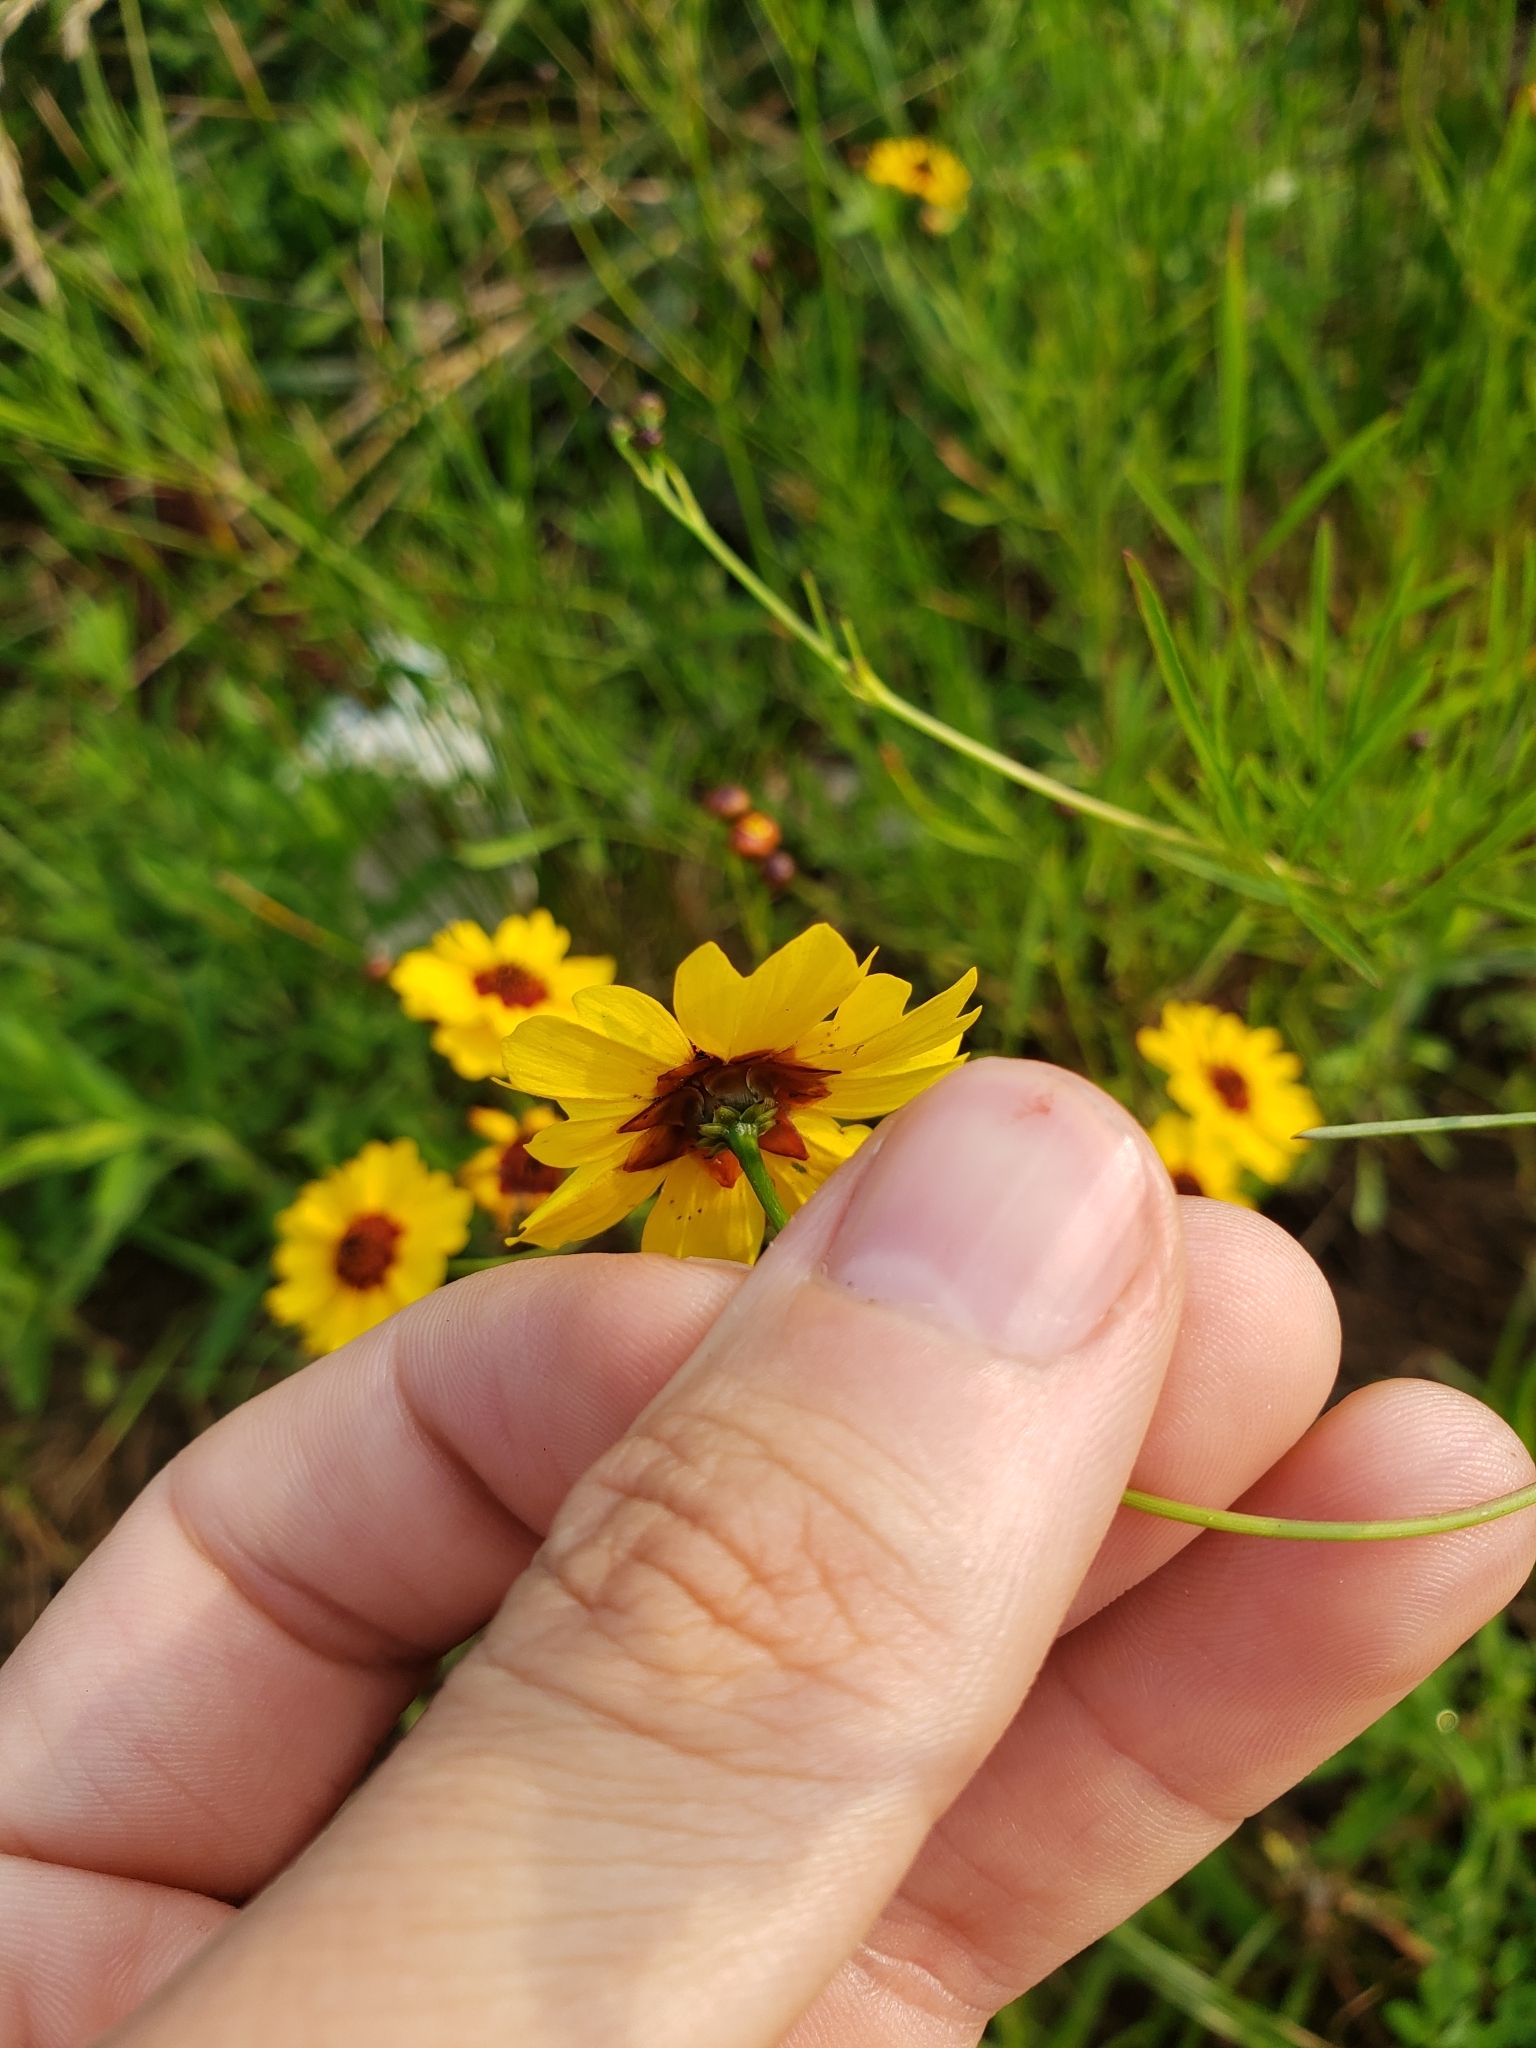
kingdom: Plantae
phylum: Tracheophyta
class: Magnoliopsida
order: Asterales
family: Asteraceae
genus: Coreopsis
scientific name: Coreopsis tinctoria
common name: Garden tickseed
